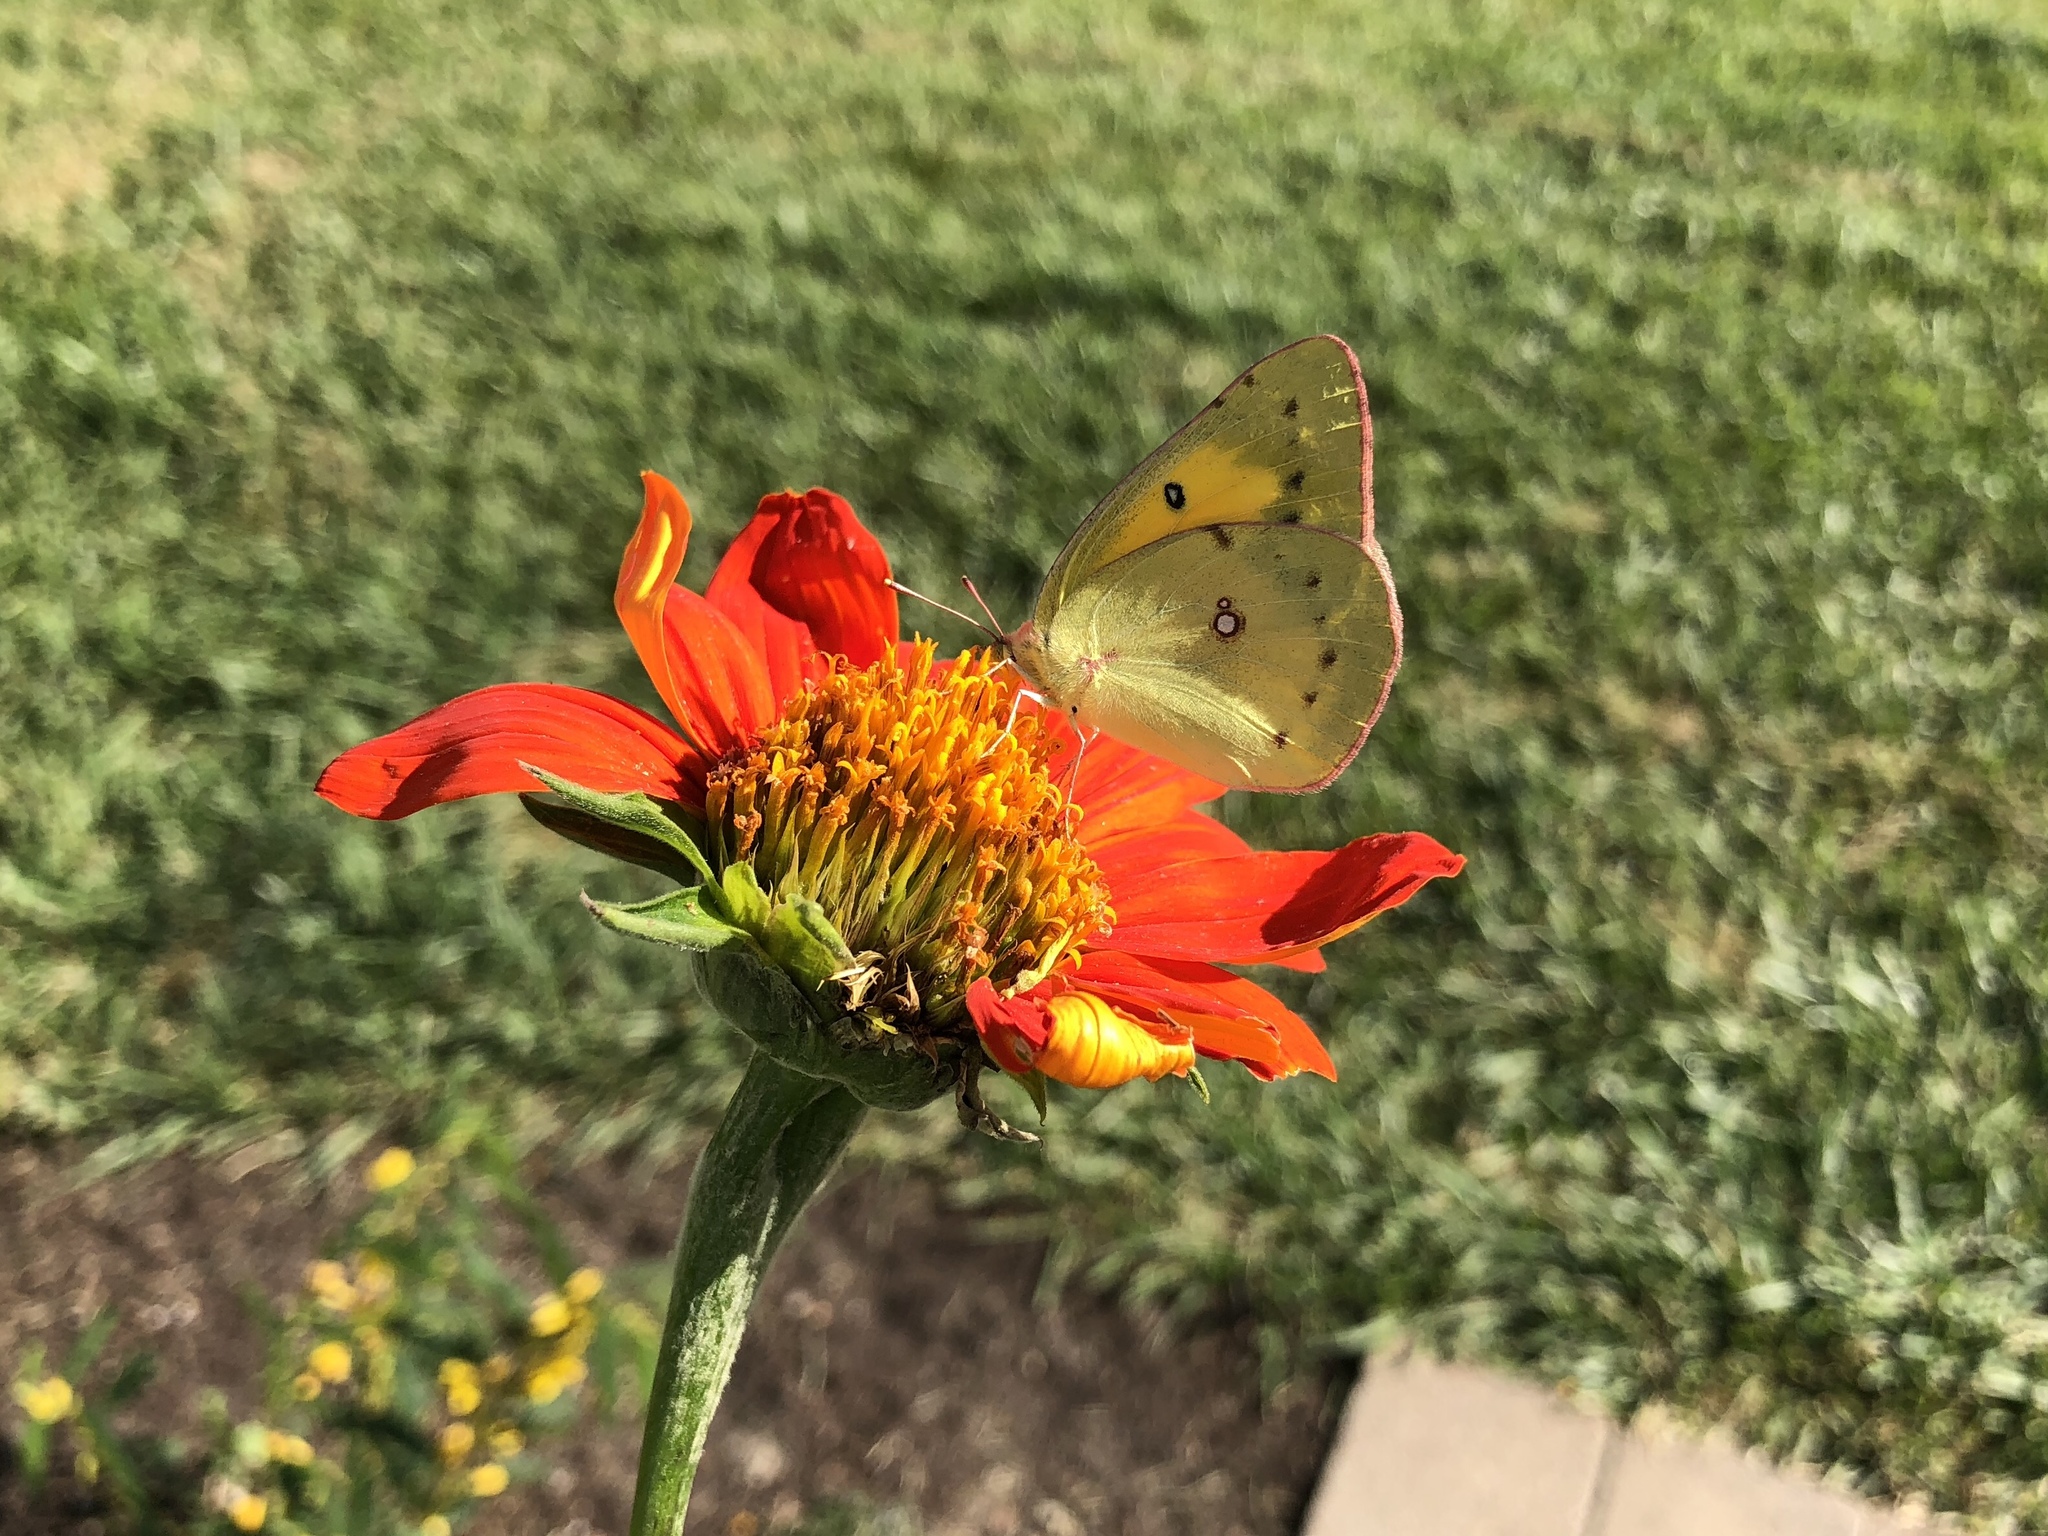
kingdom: Animalia
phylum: Arthropoda
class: Insecta
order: Lepidoptera
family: Pieridae
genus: Colias
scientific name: Colias eurytheme
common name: Alfalfa butterfly
